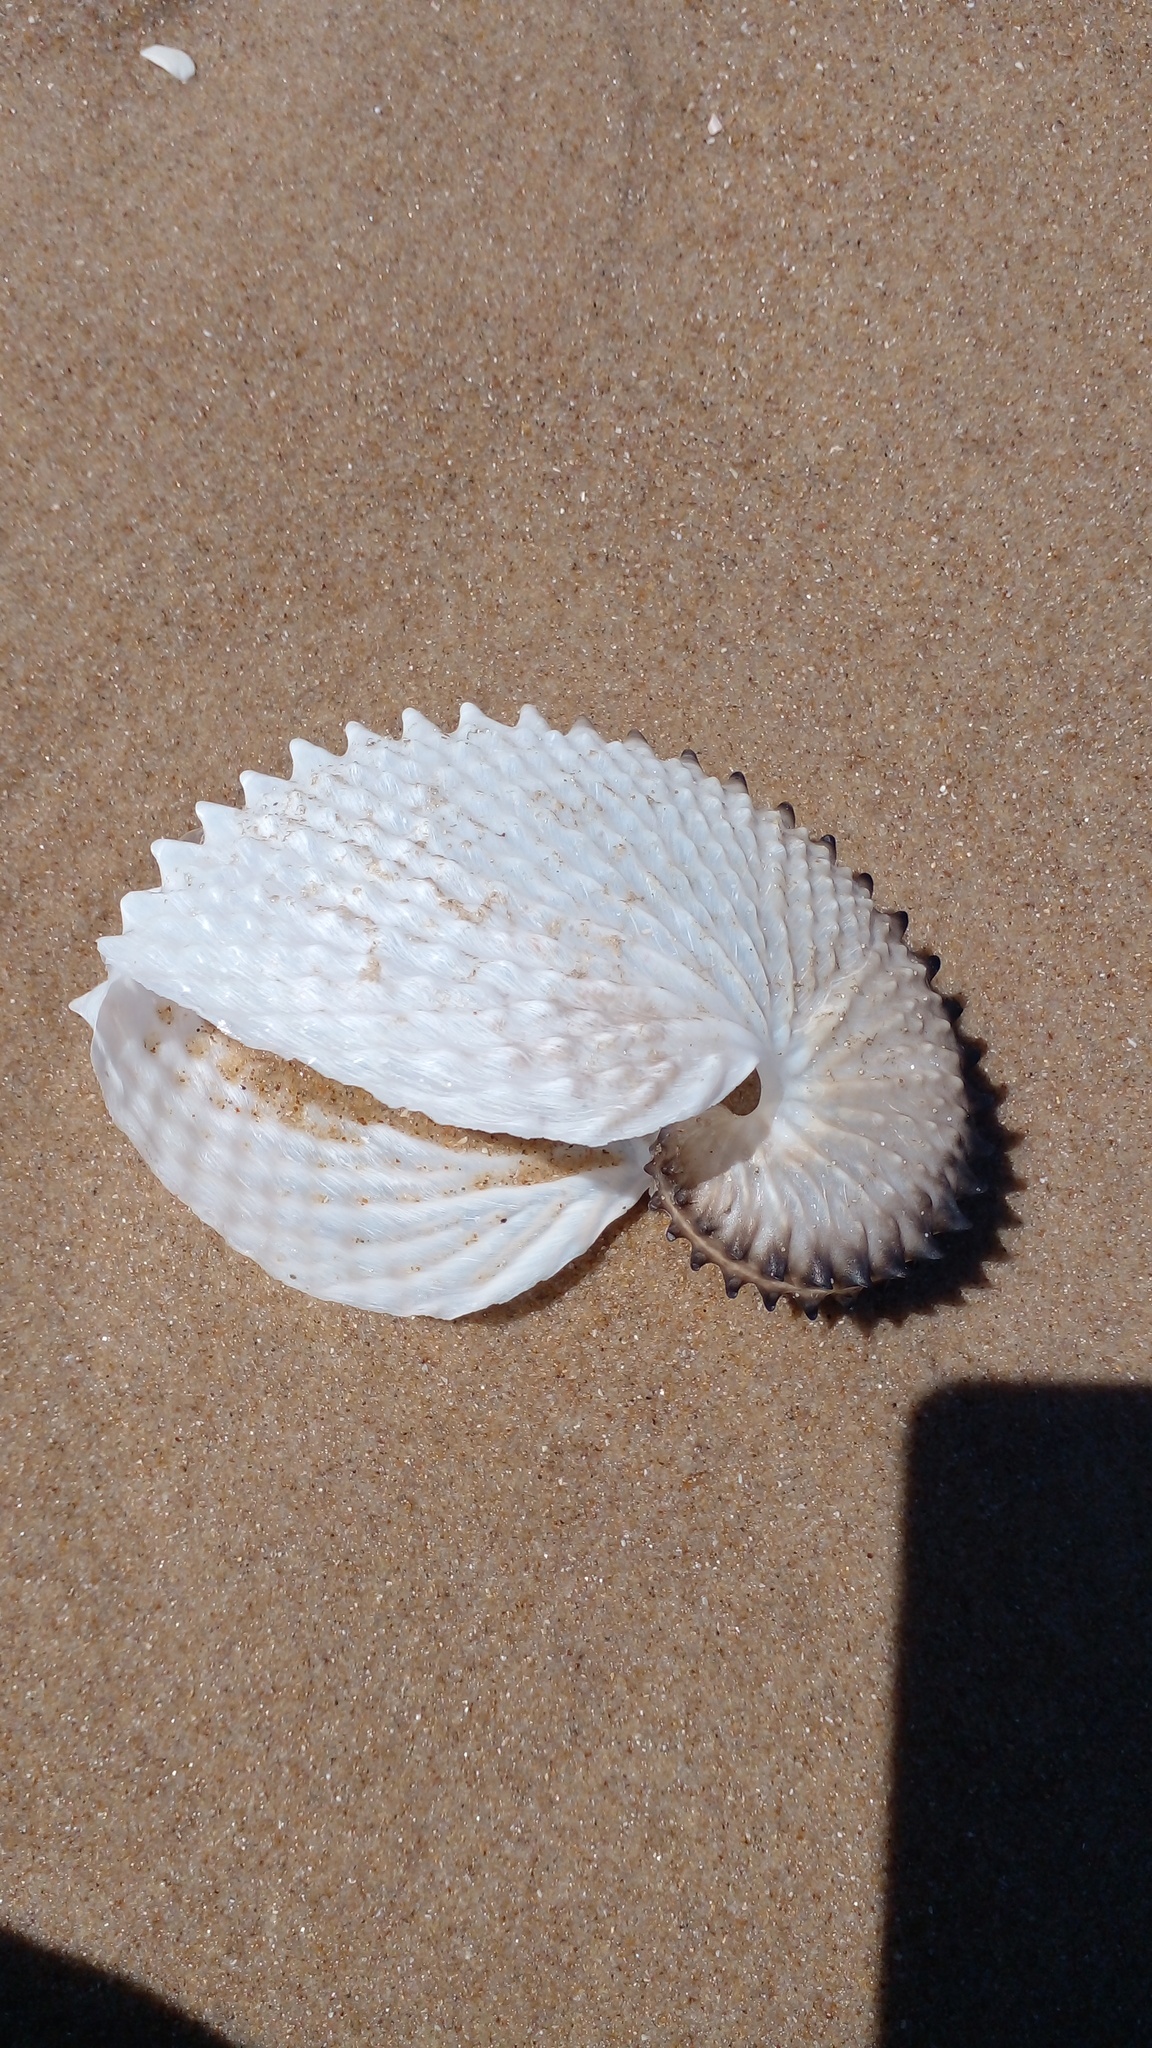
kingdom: Animalia
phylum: Mollusca
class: Cephalopoda
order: Octopoda
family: Argonautidae
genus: Argonauta
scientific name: Argonauta nodosus
